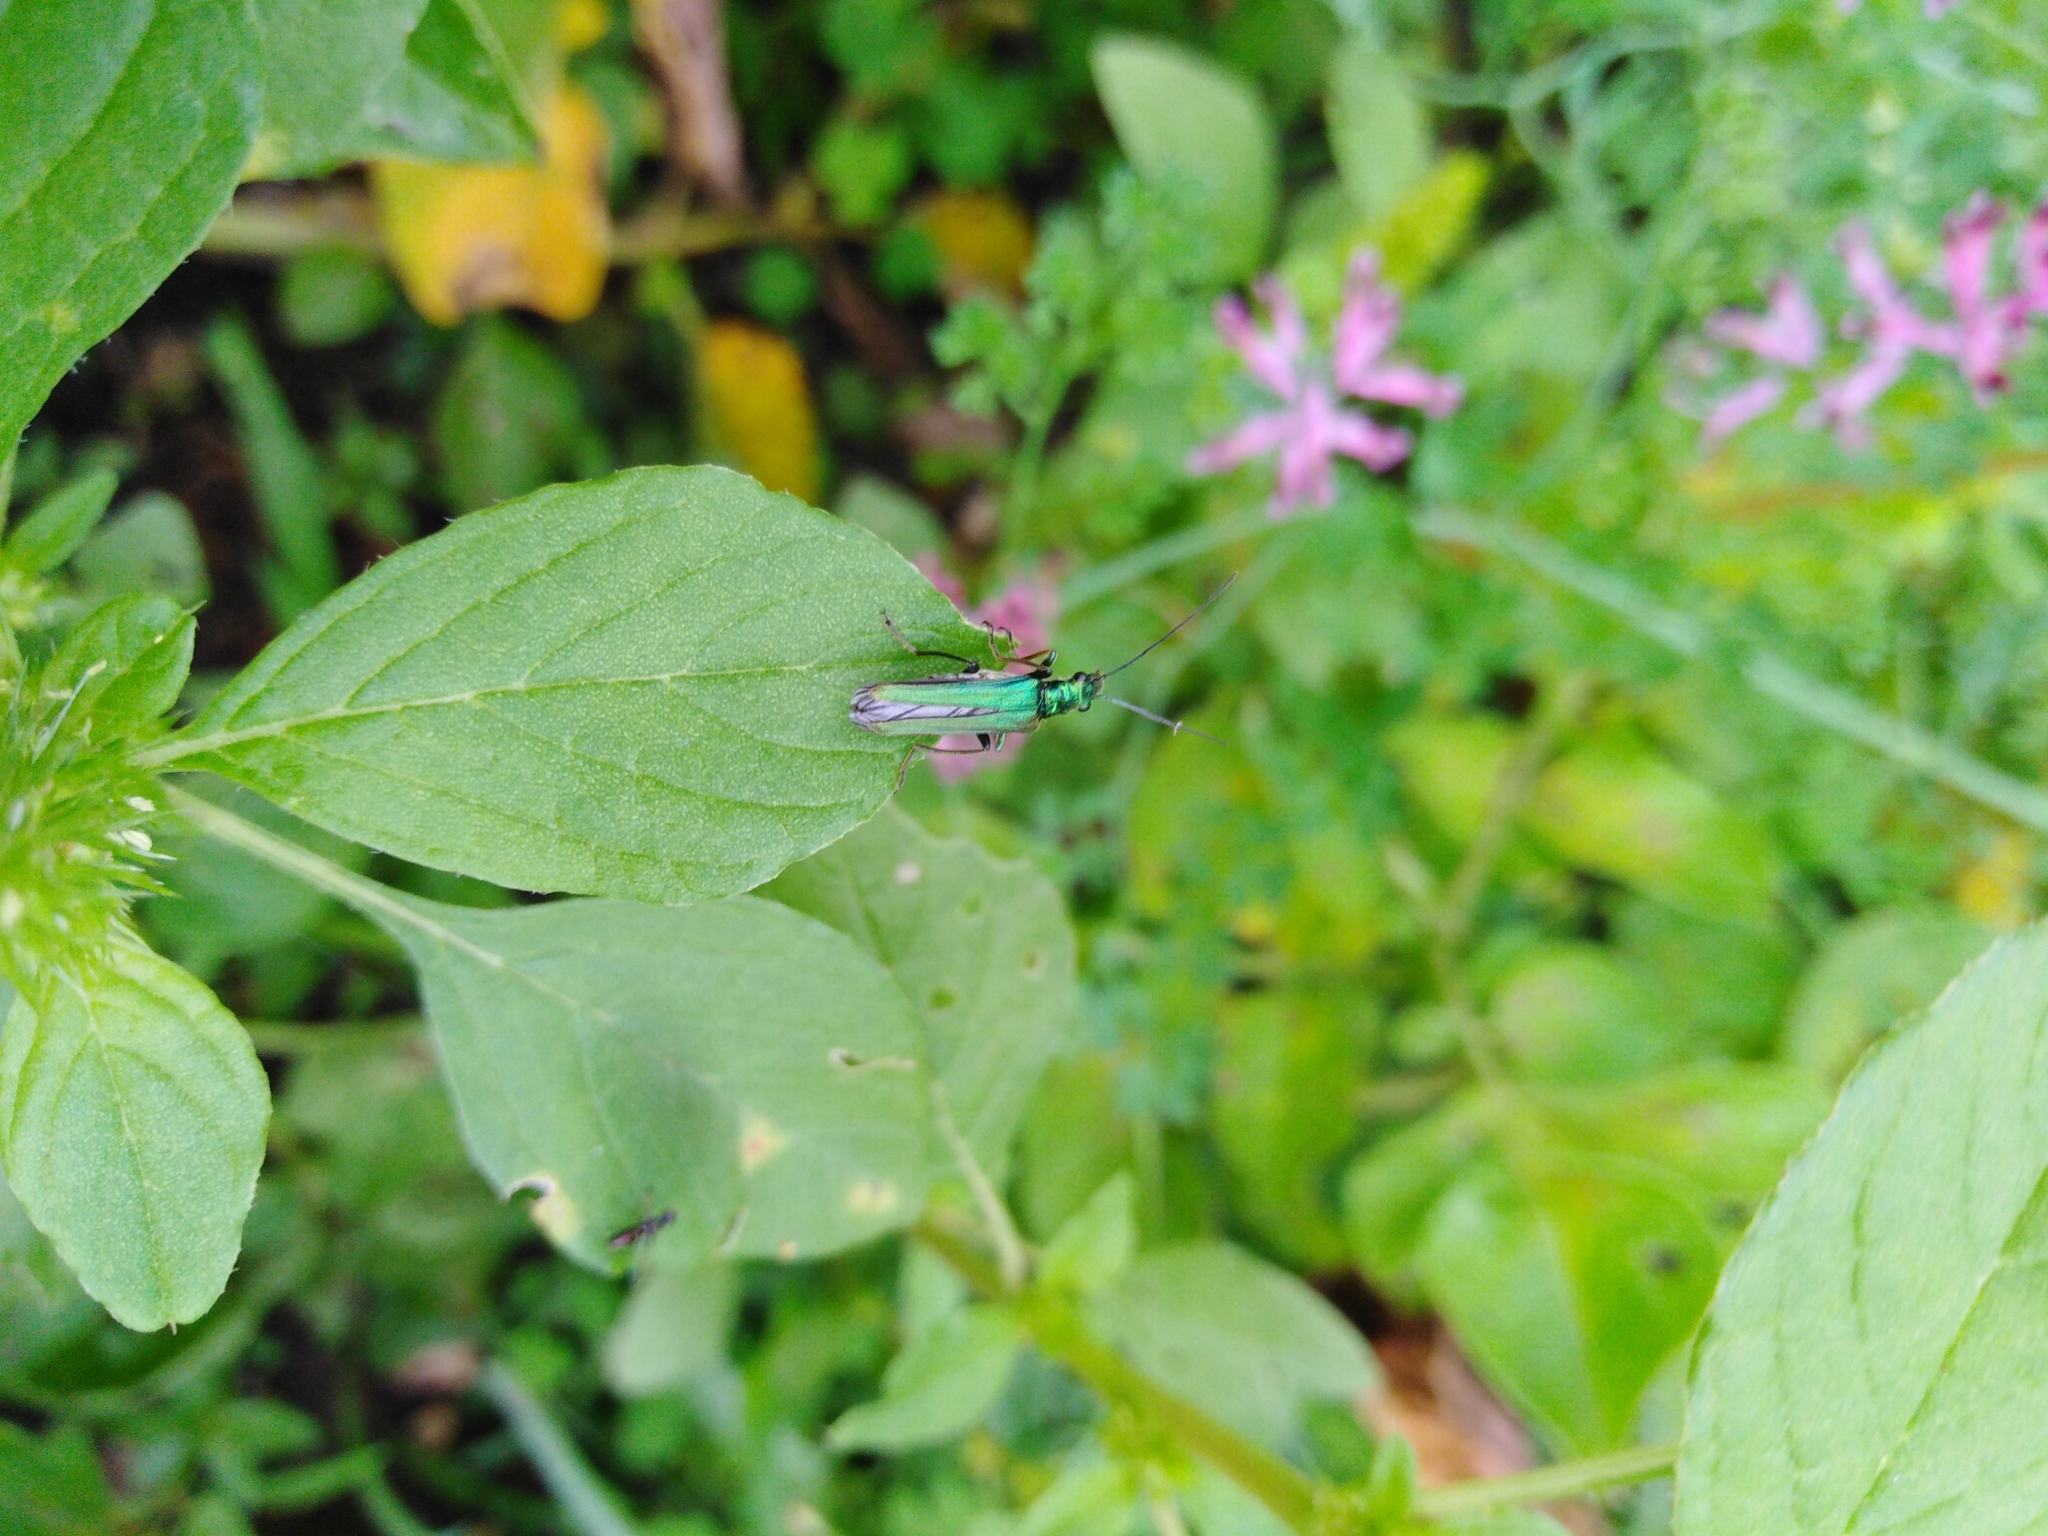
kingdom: Animalia
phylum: Arthropoda
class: Insecta
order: Coleoptera
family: Oedemeridae
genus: Oedemera
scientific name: Oedemera nobilis
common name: Swollen-thighed beetle
